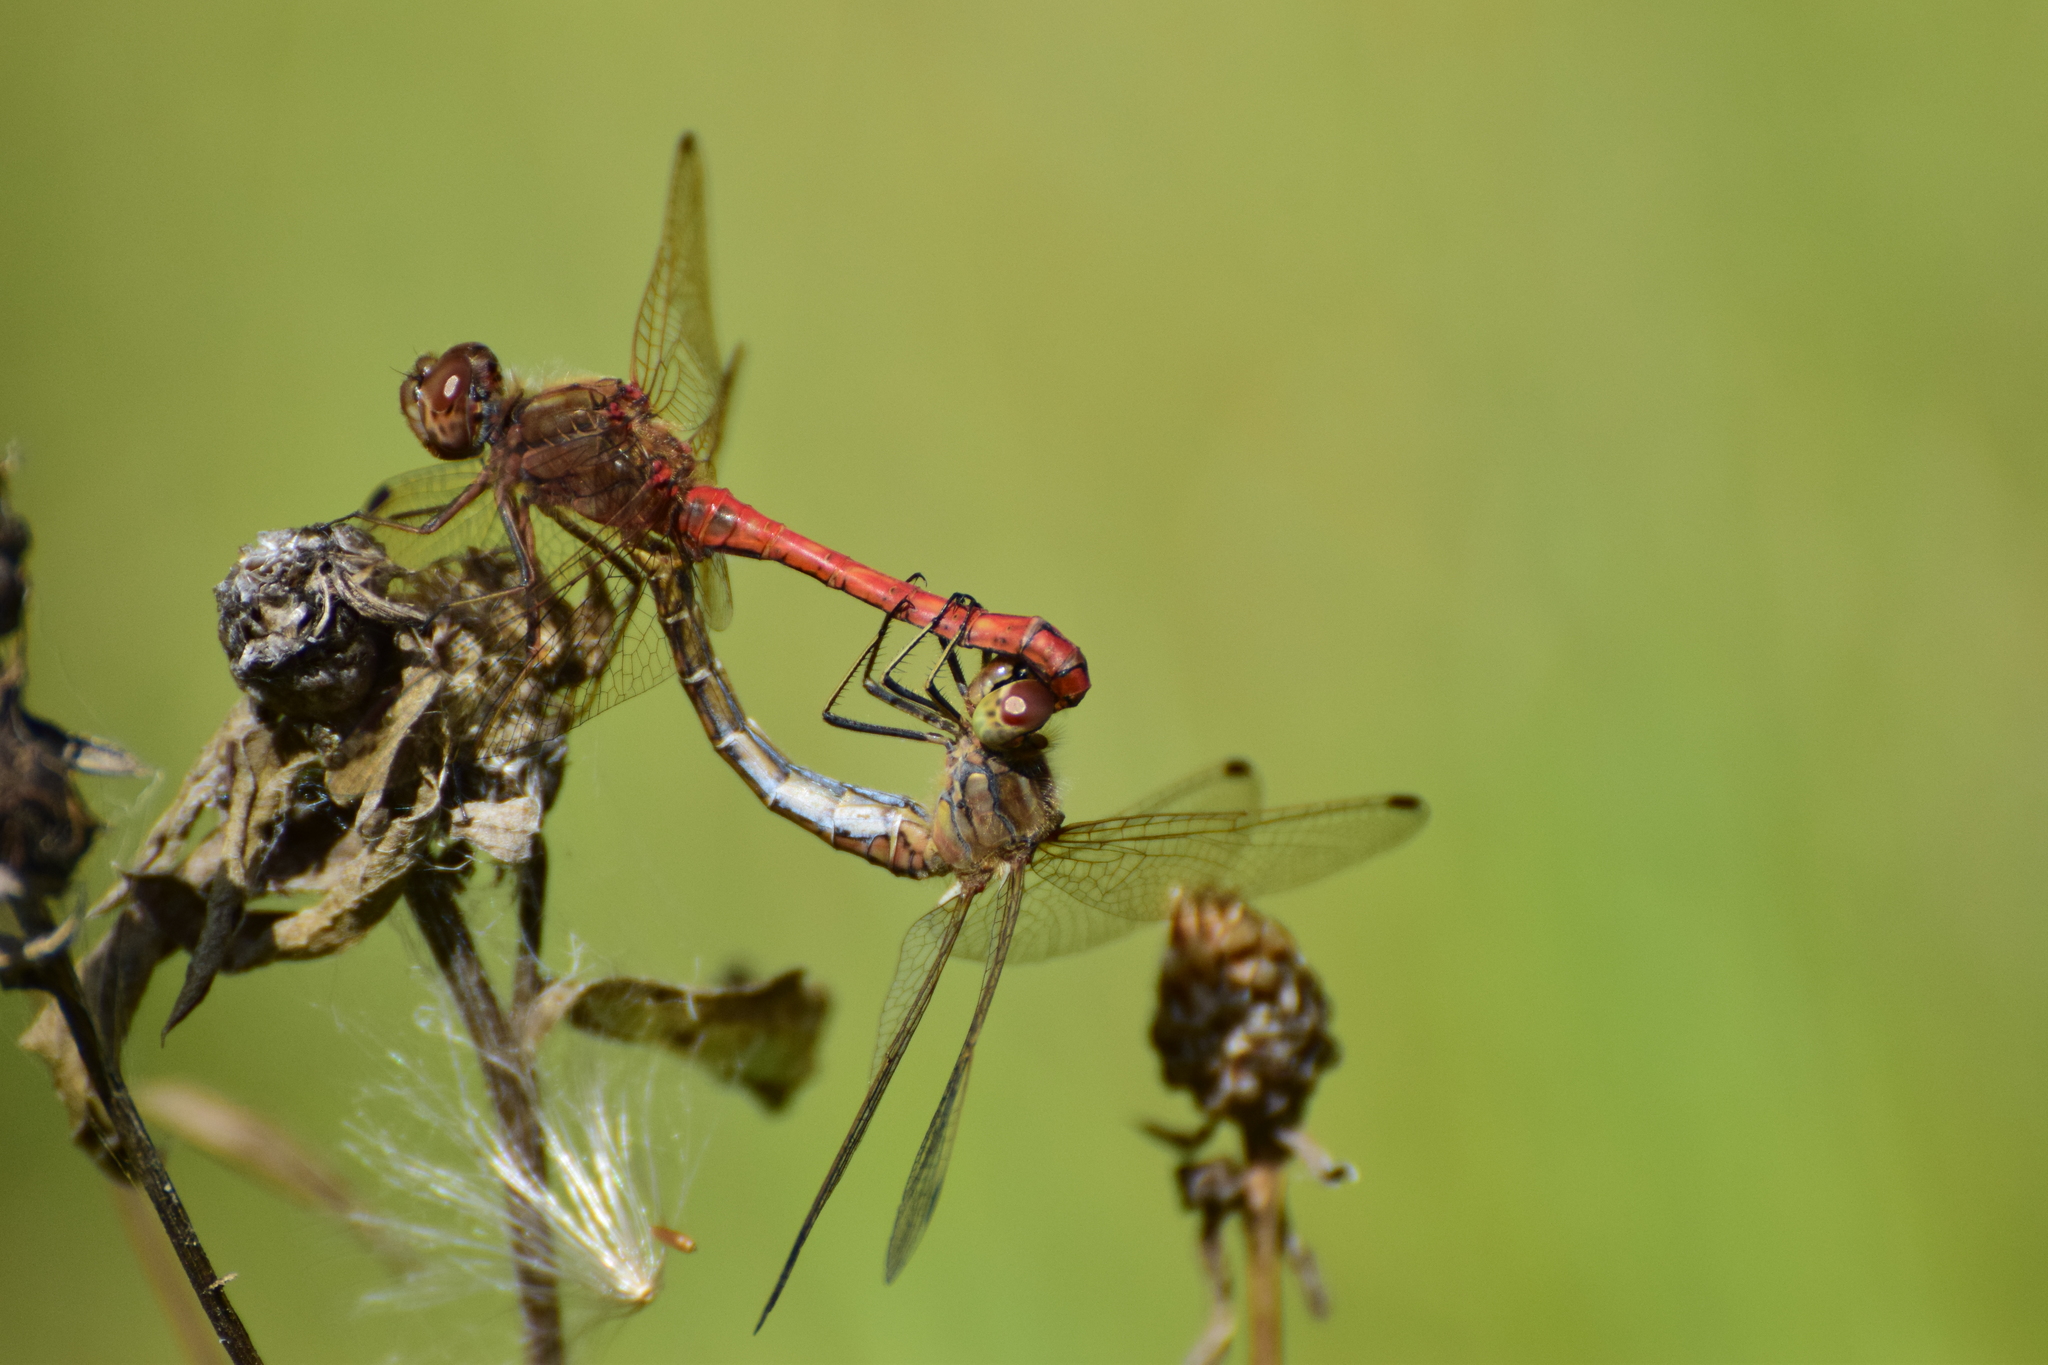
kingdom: Animalia
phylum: Arthropoda
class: Insecta
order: Odonata
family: Libellulidae
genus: Sympetrum
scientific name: Sympetrum vulgatum
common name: Vagrant darter
